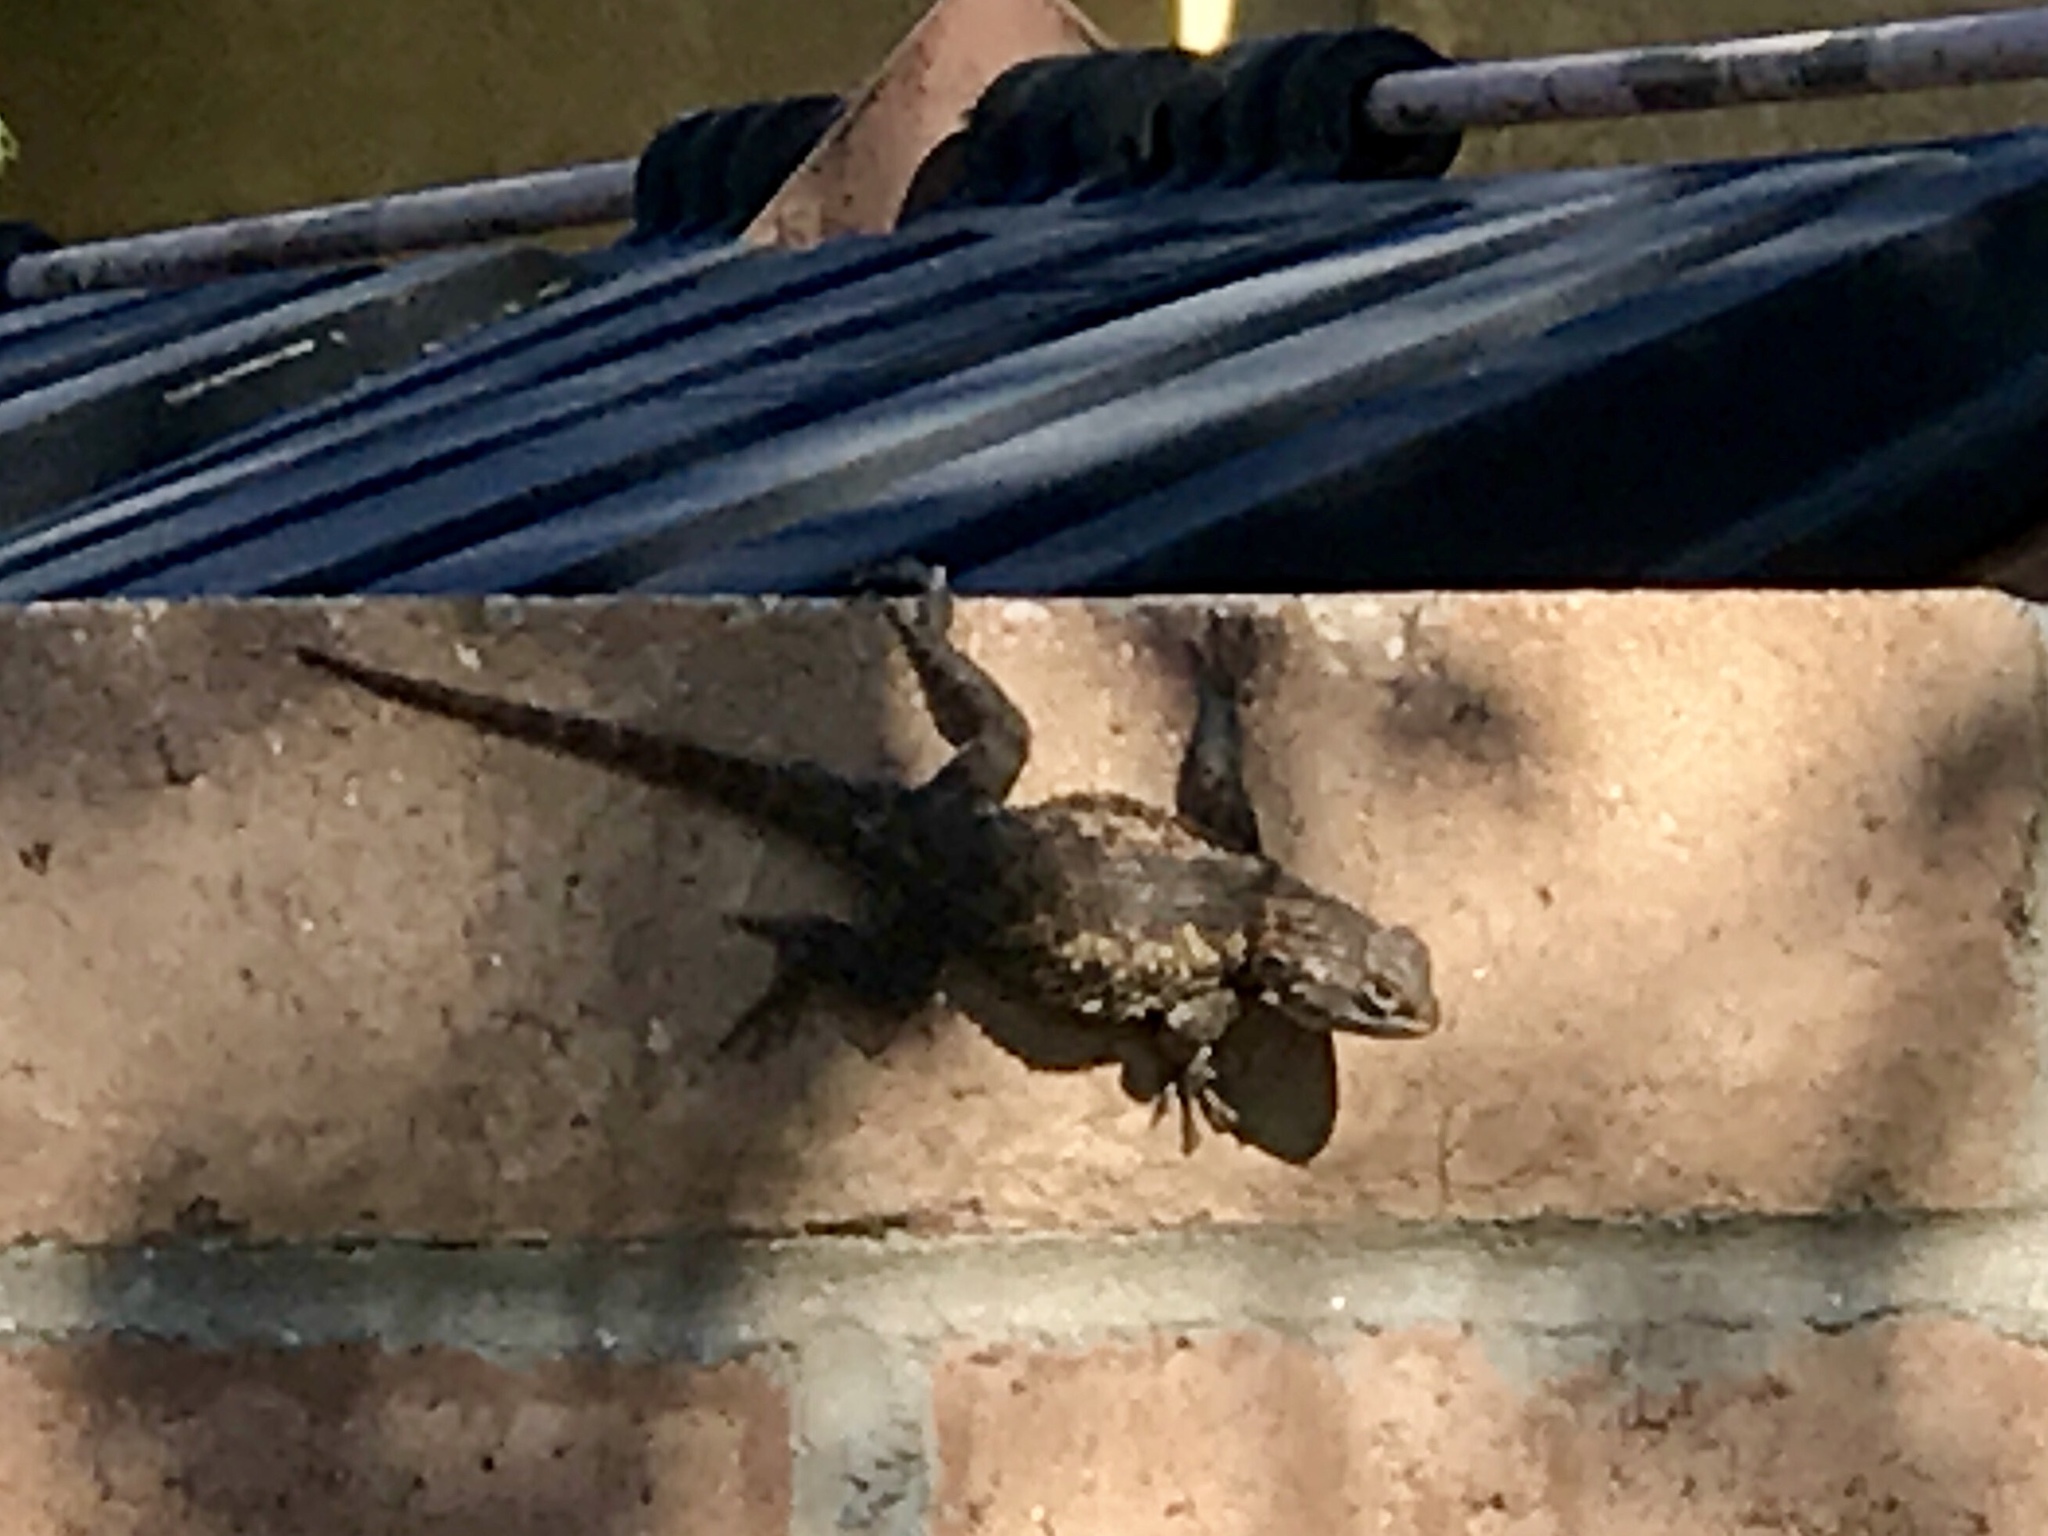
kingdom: Animalia
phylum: Chordata
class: Squamata
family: Phrynosomatidae
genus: Sceloporus
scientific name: Sceloporus magister
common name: Desert spiny lizard
